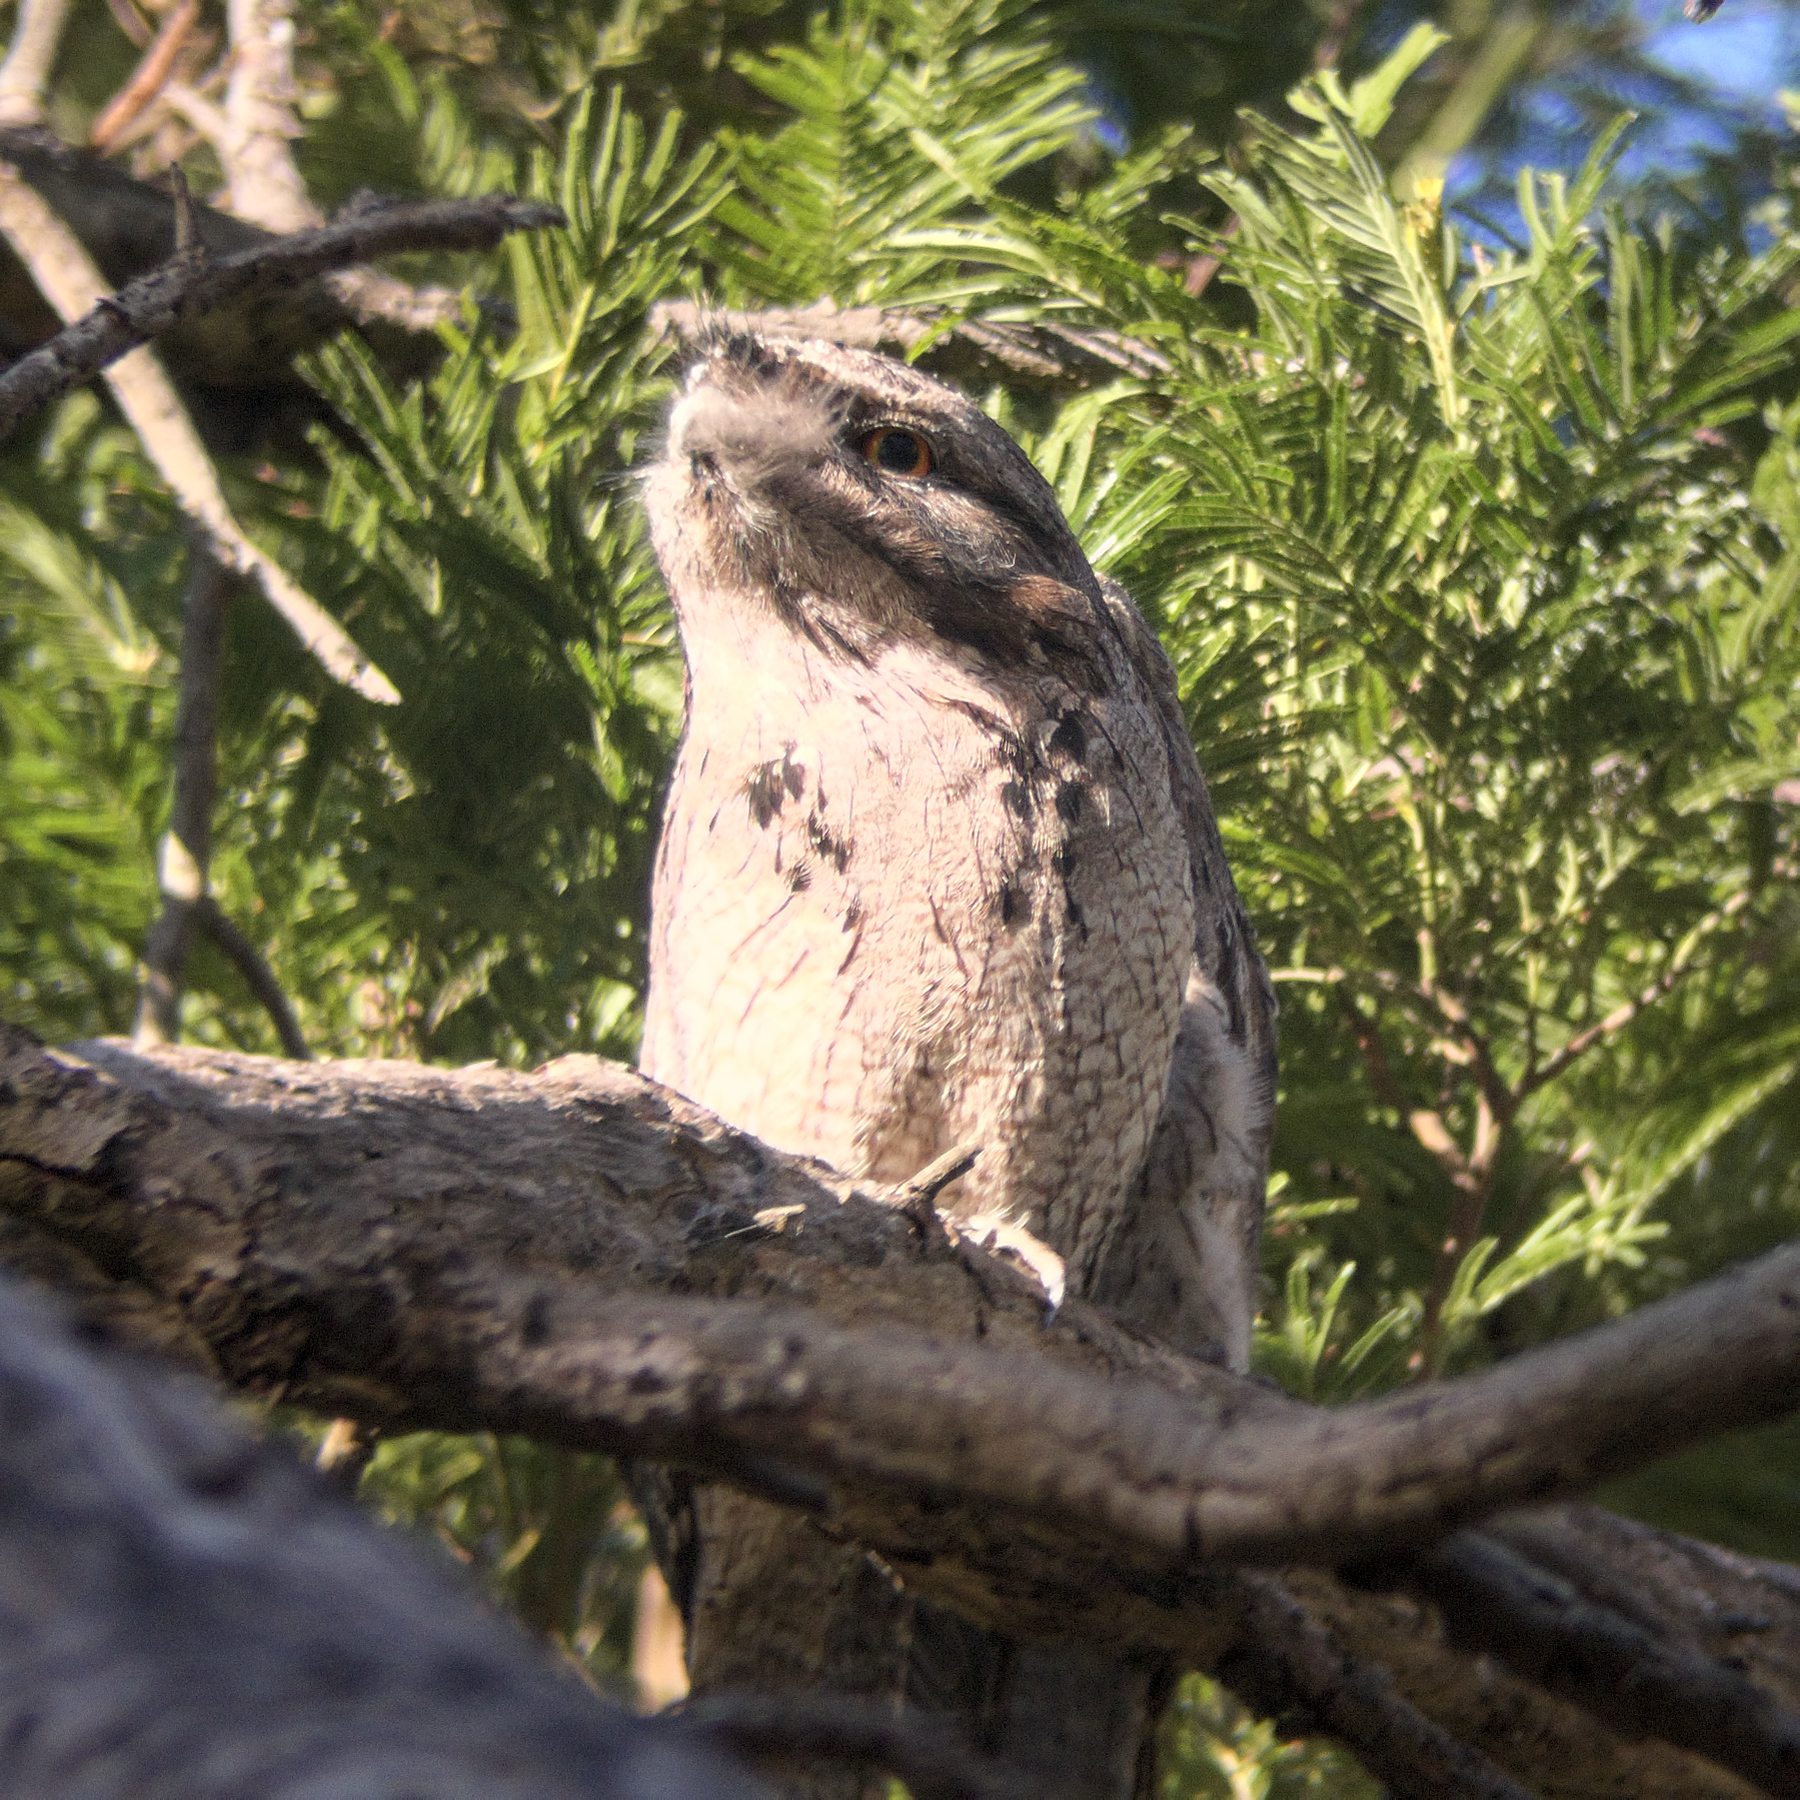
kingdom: Animalia
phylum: Chordata
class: Aves
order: Caprimulgiformes
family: Podargidae
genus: Podargus
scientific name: Podargus strigoides
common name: Tawny frogmouth
